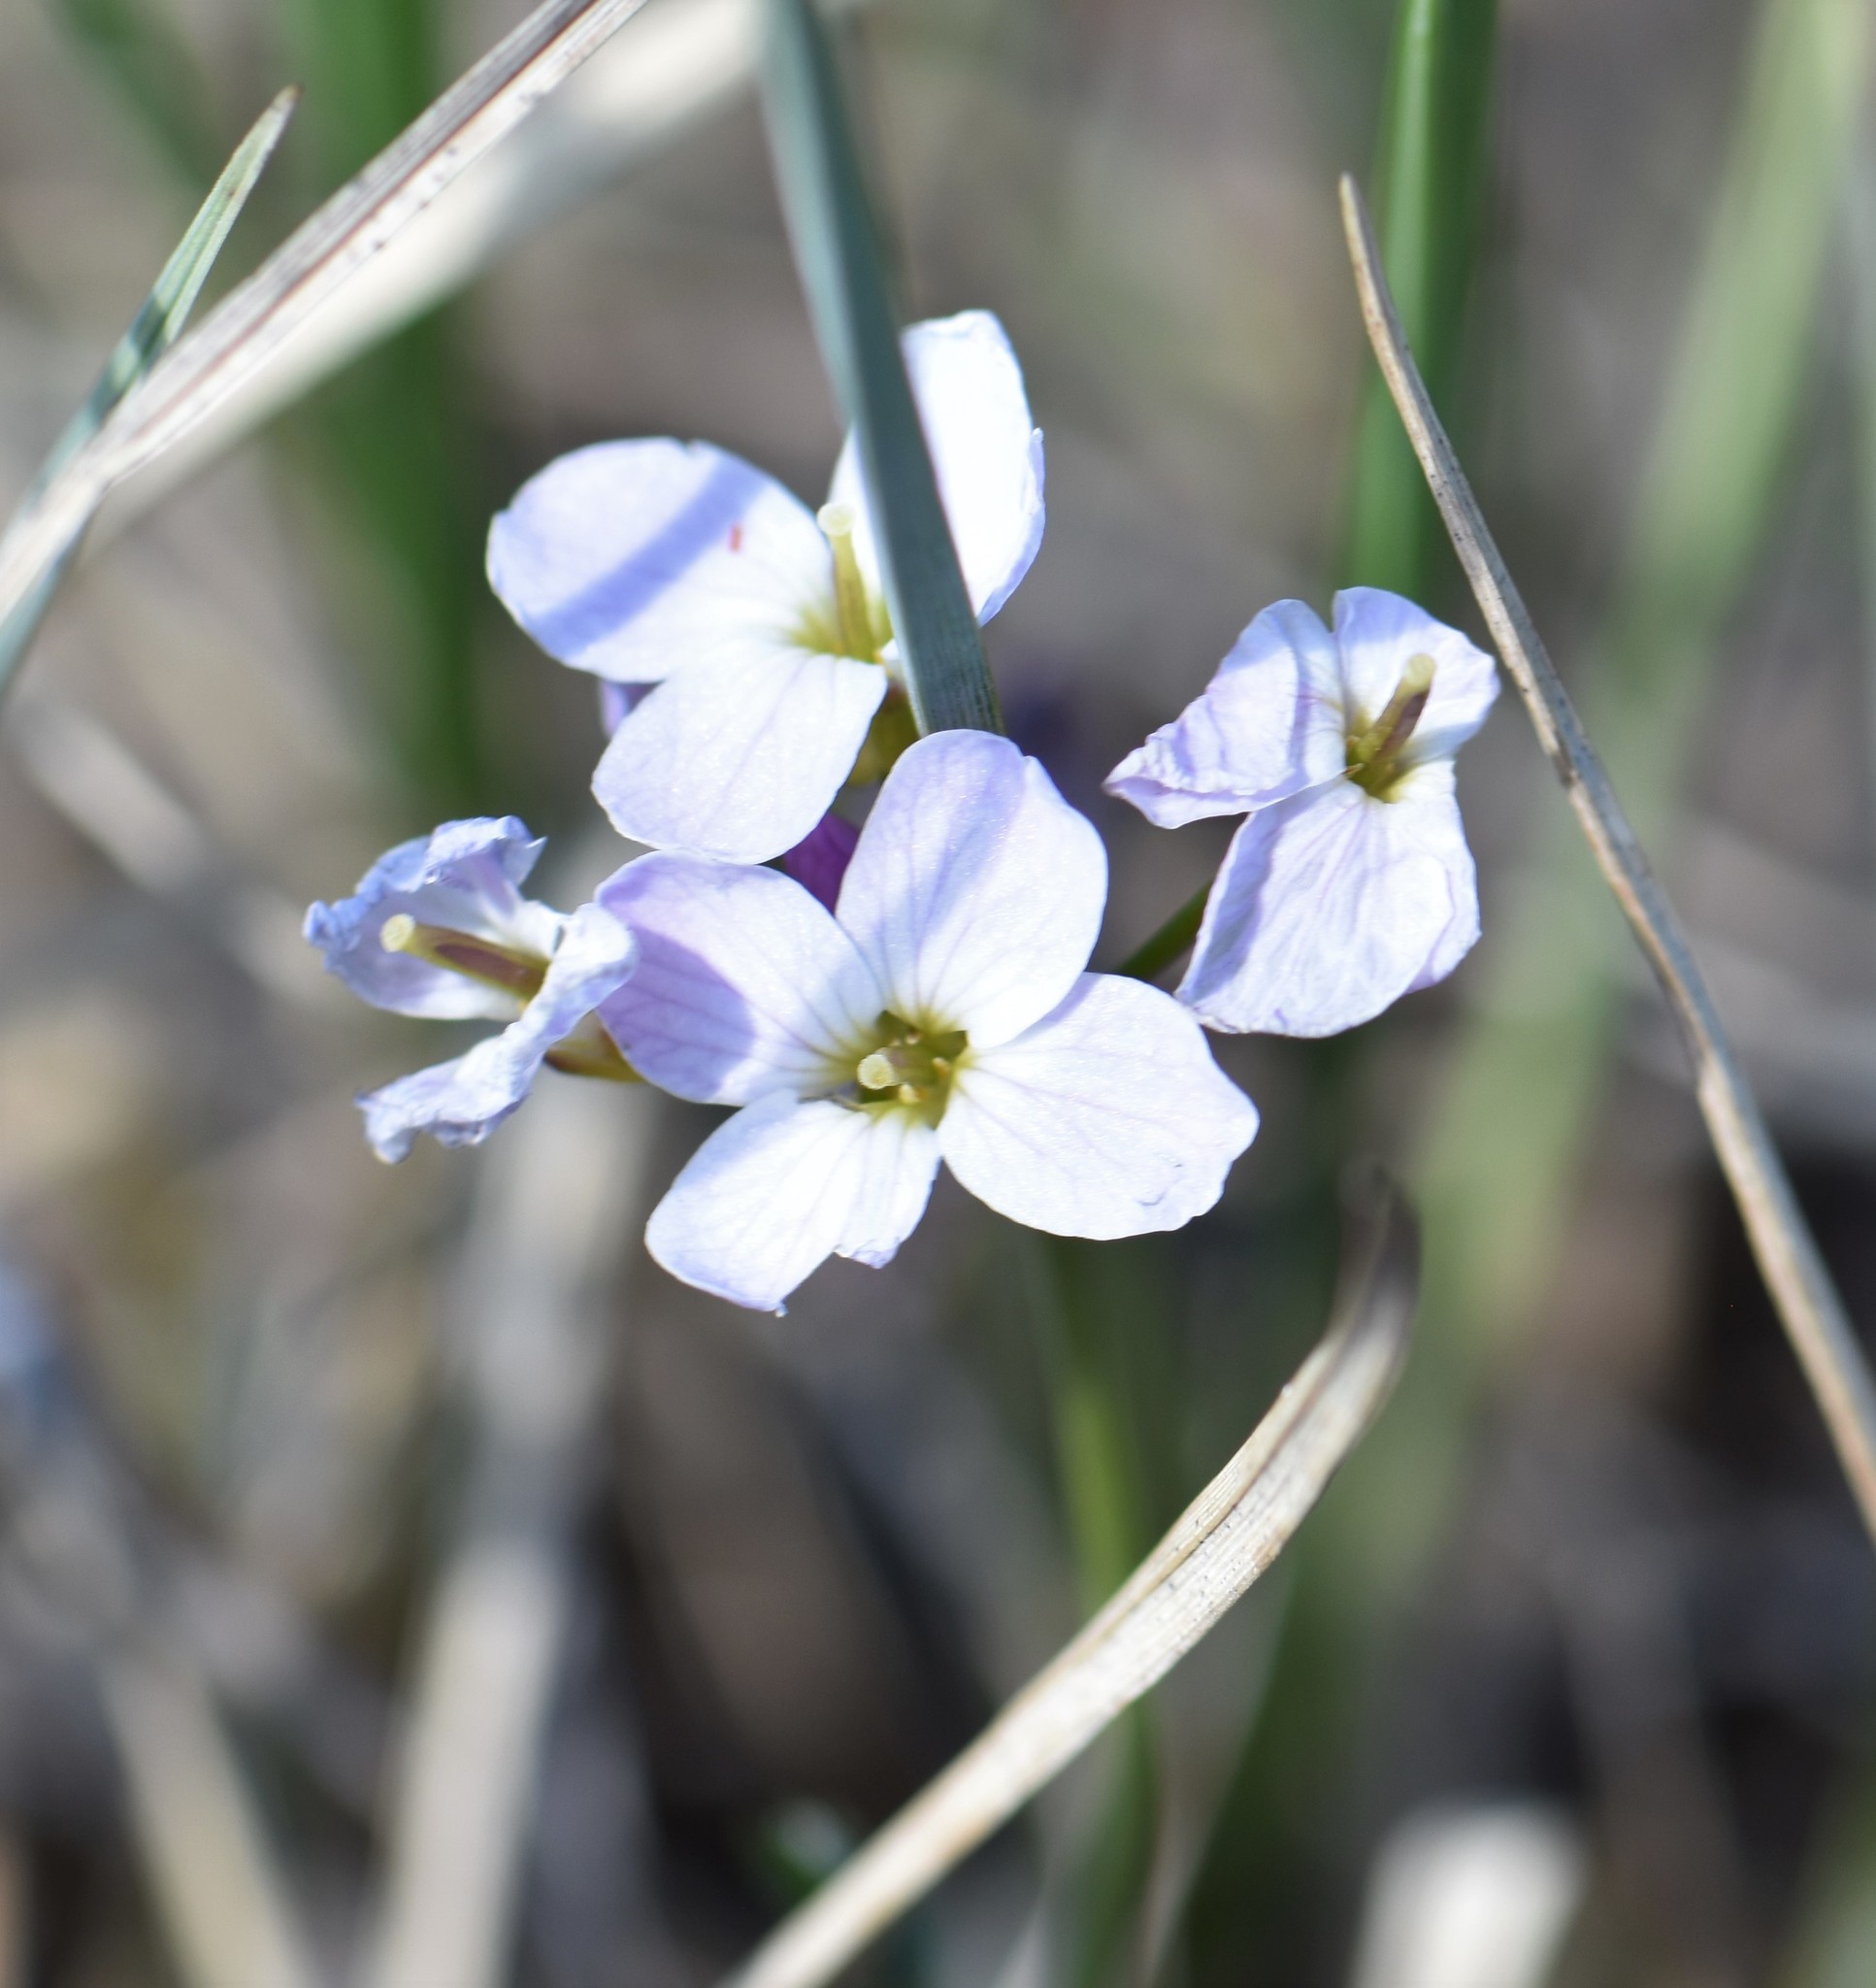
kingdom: Plantae
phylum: Tracheophyta
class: Magnoliopsida
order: Brassicales
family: Brassicaceae
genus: Cardamine
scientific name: Cardamine nymanii
